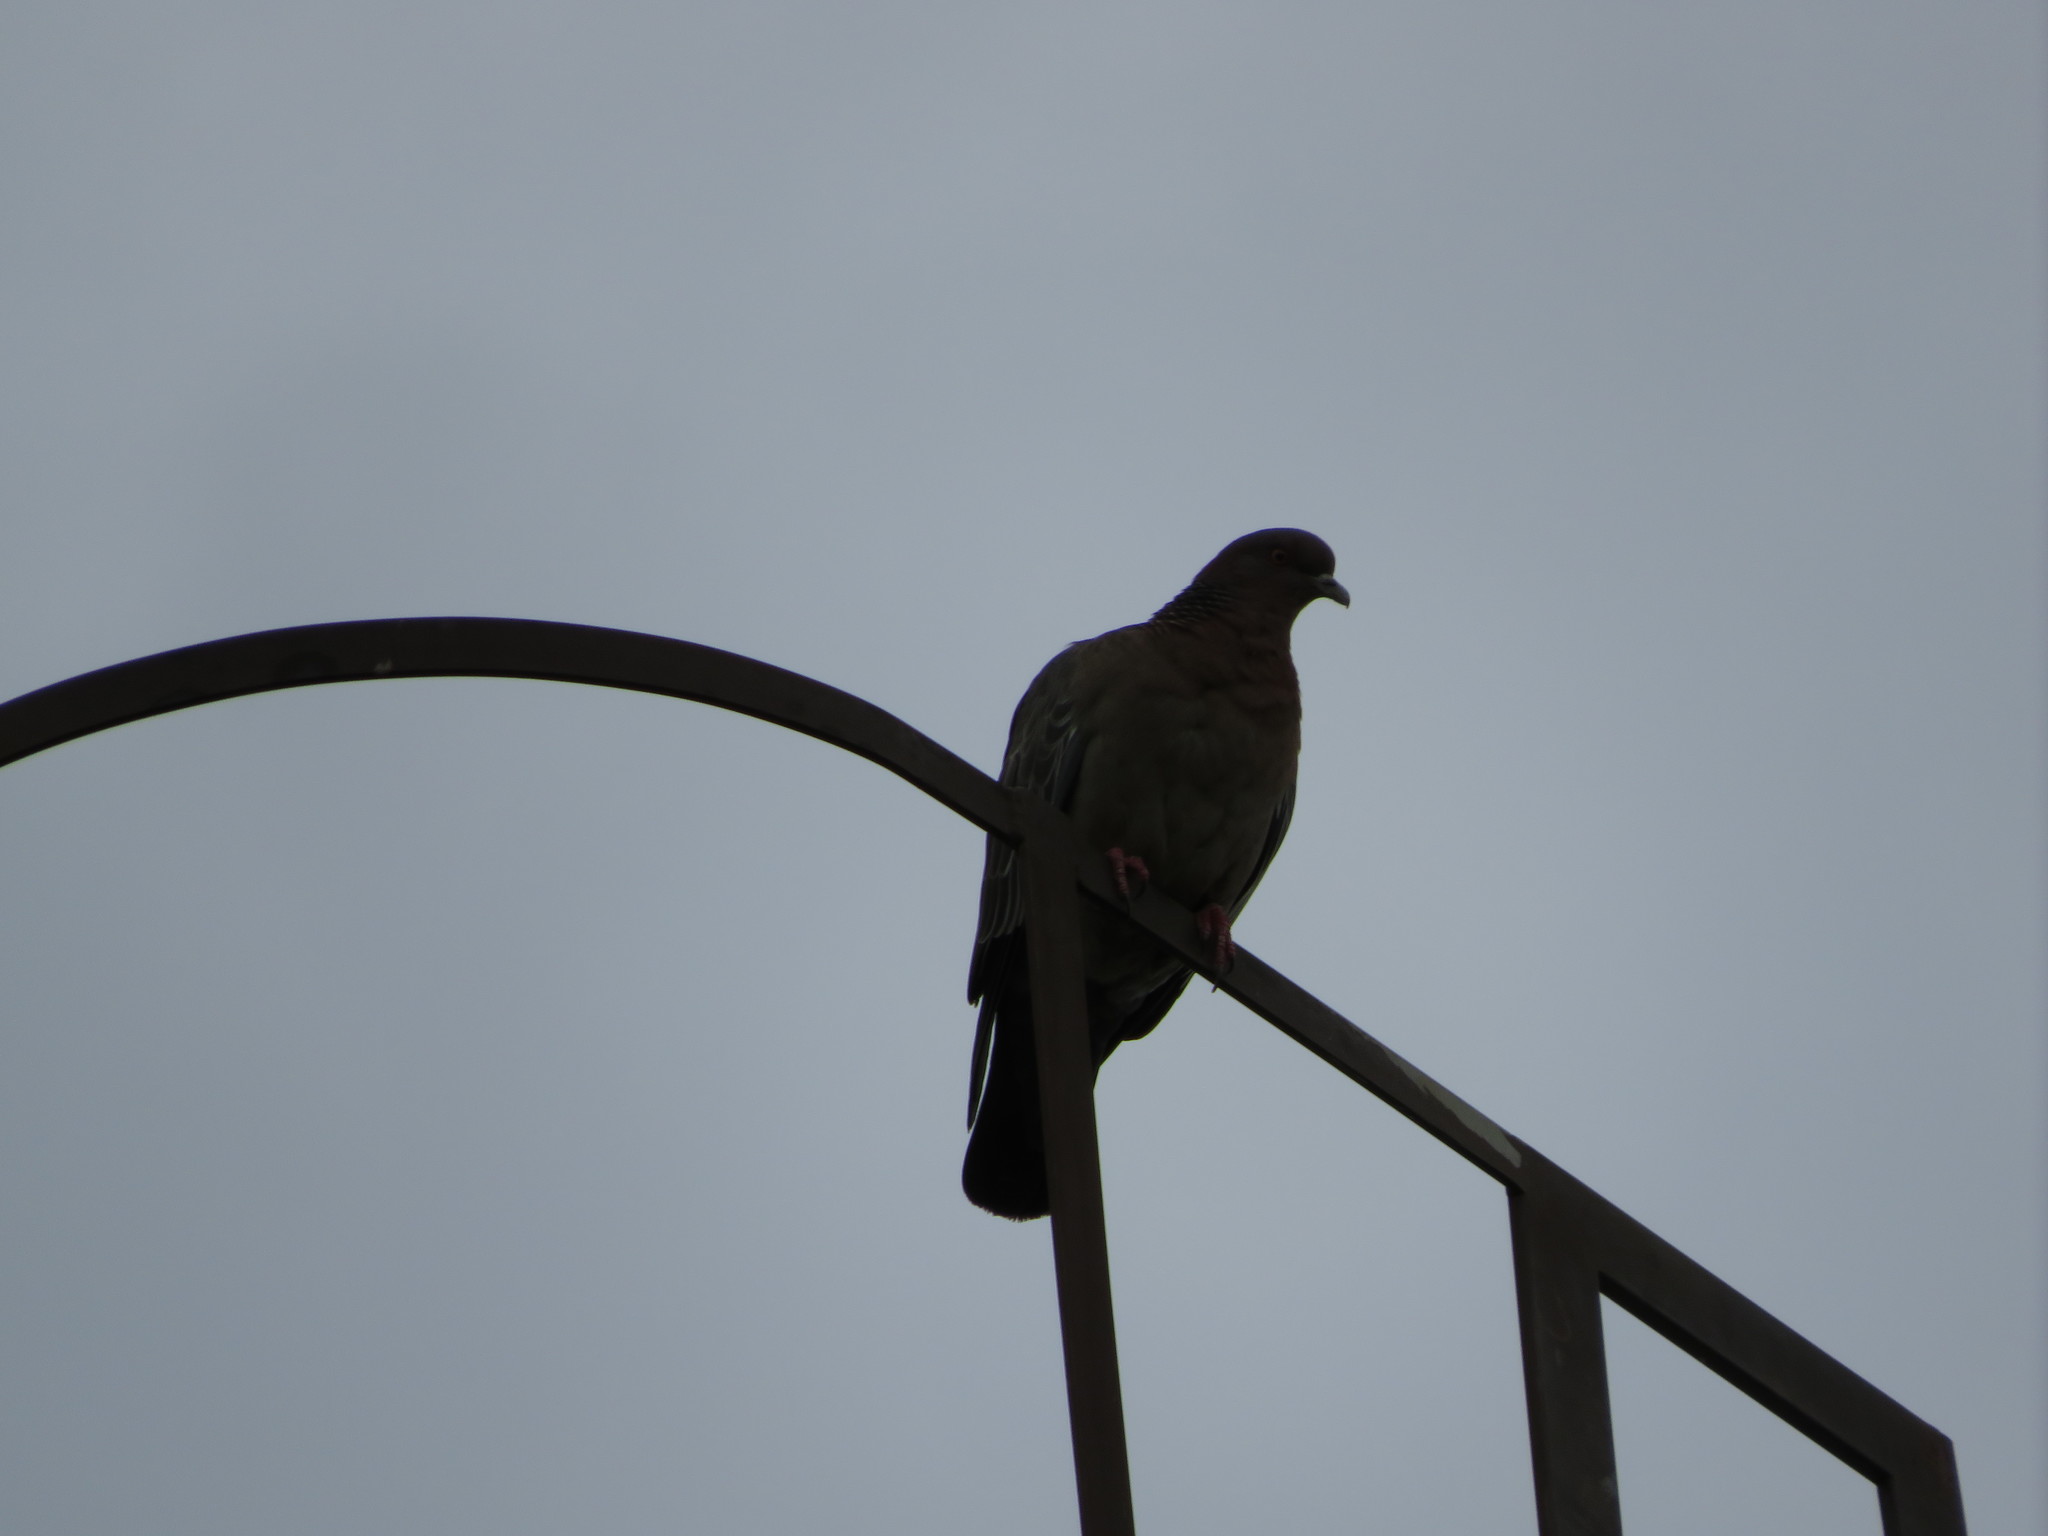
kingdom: Animalia
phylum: Chordata
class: Aves
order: Columbiformes
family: Columbidae
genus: Patagioenas
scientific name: Patagioenas picazuro
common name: Picazuro pigeon
